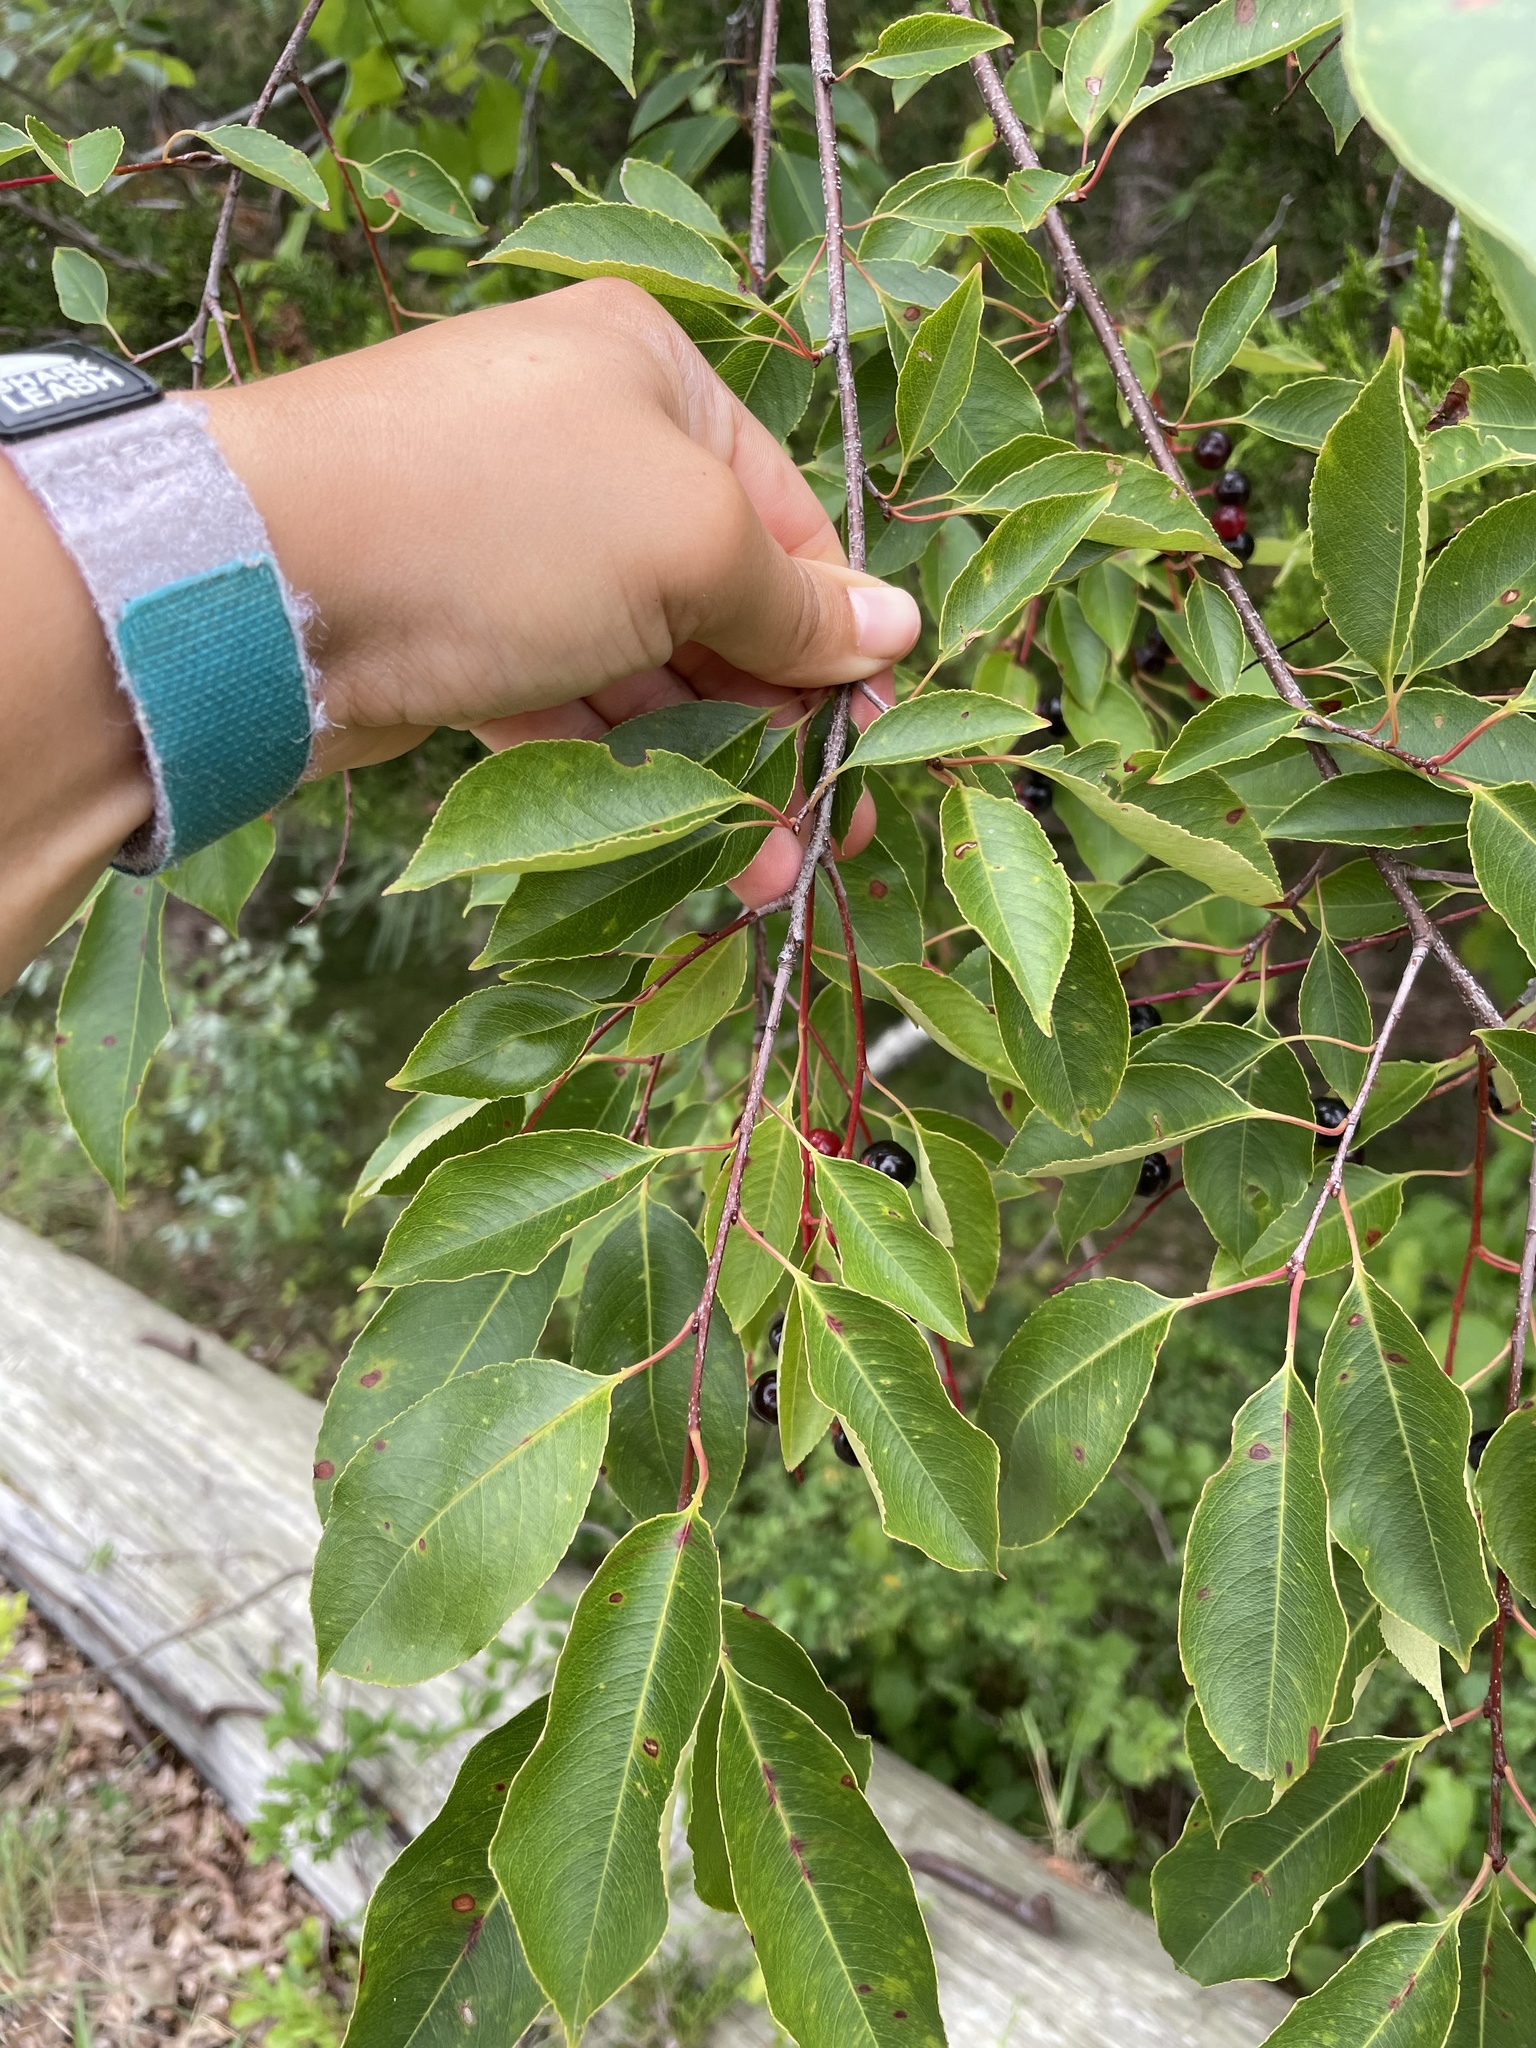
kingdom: Plantae
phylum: Tracheophyta
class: Magnoliopsida
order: Rosales
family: Rosaceae
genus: Prunus
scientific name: Prunus serotina
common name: Black cherry
